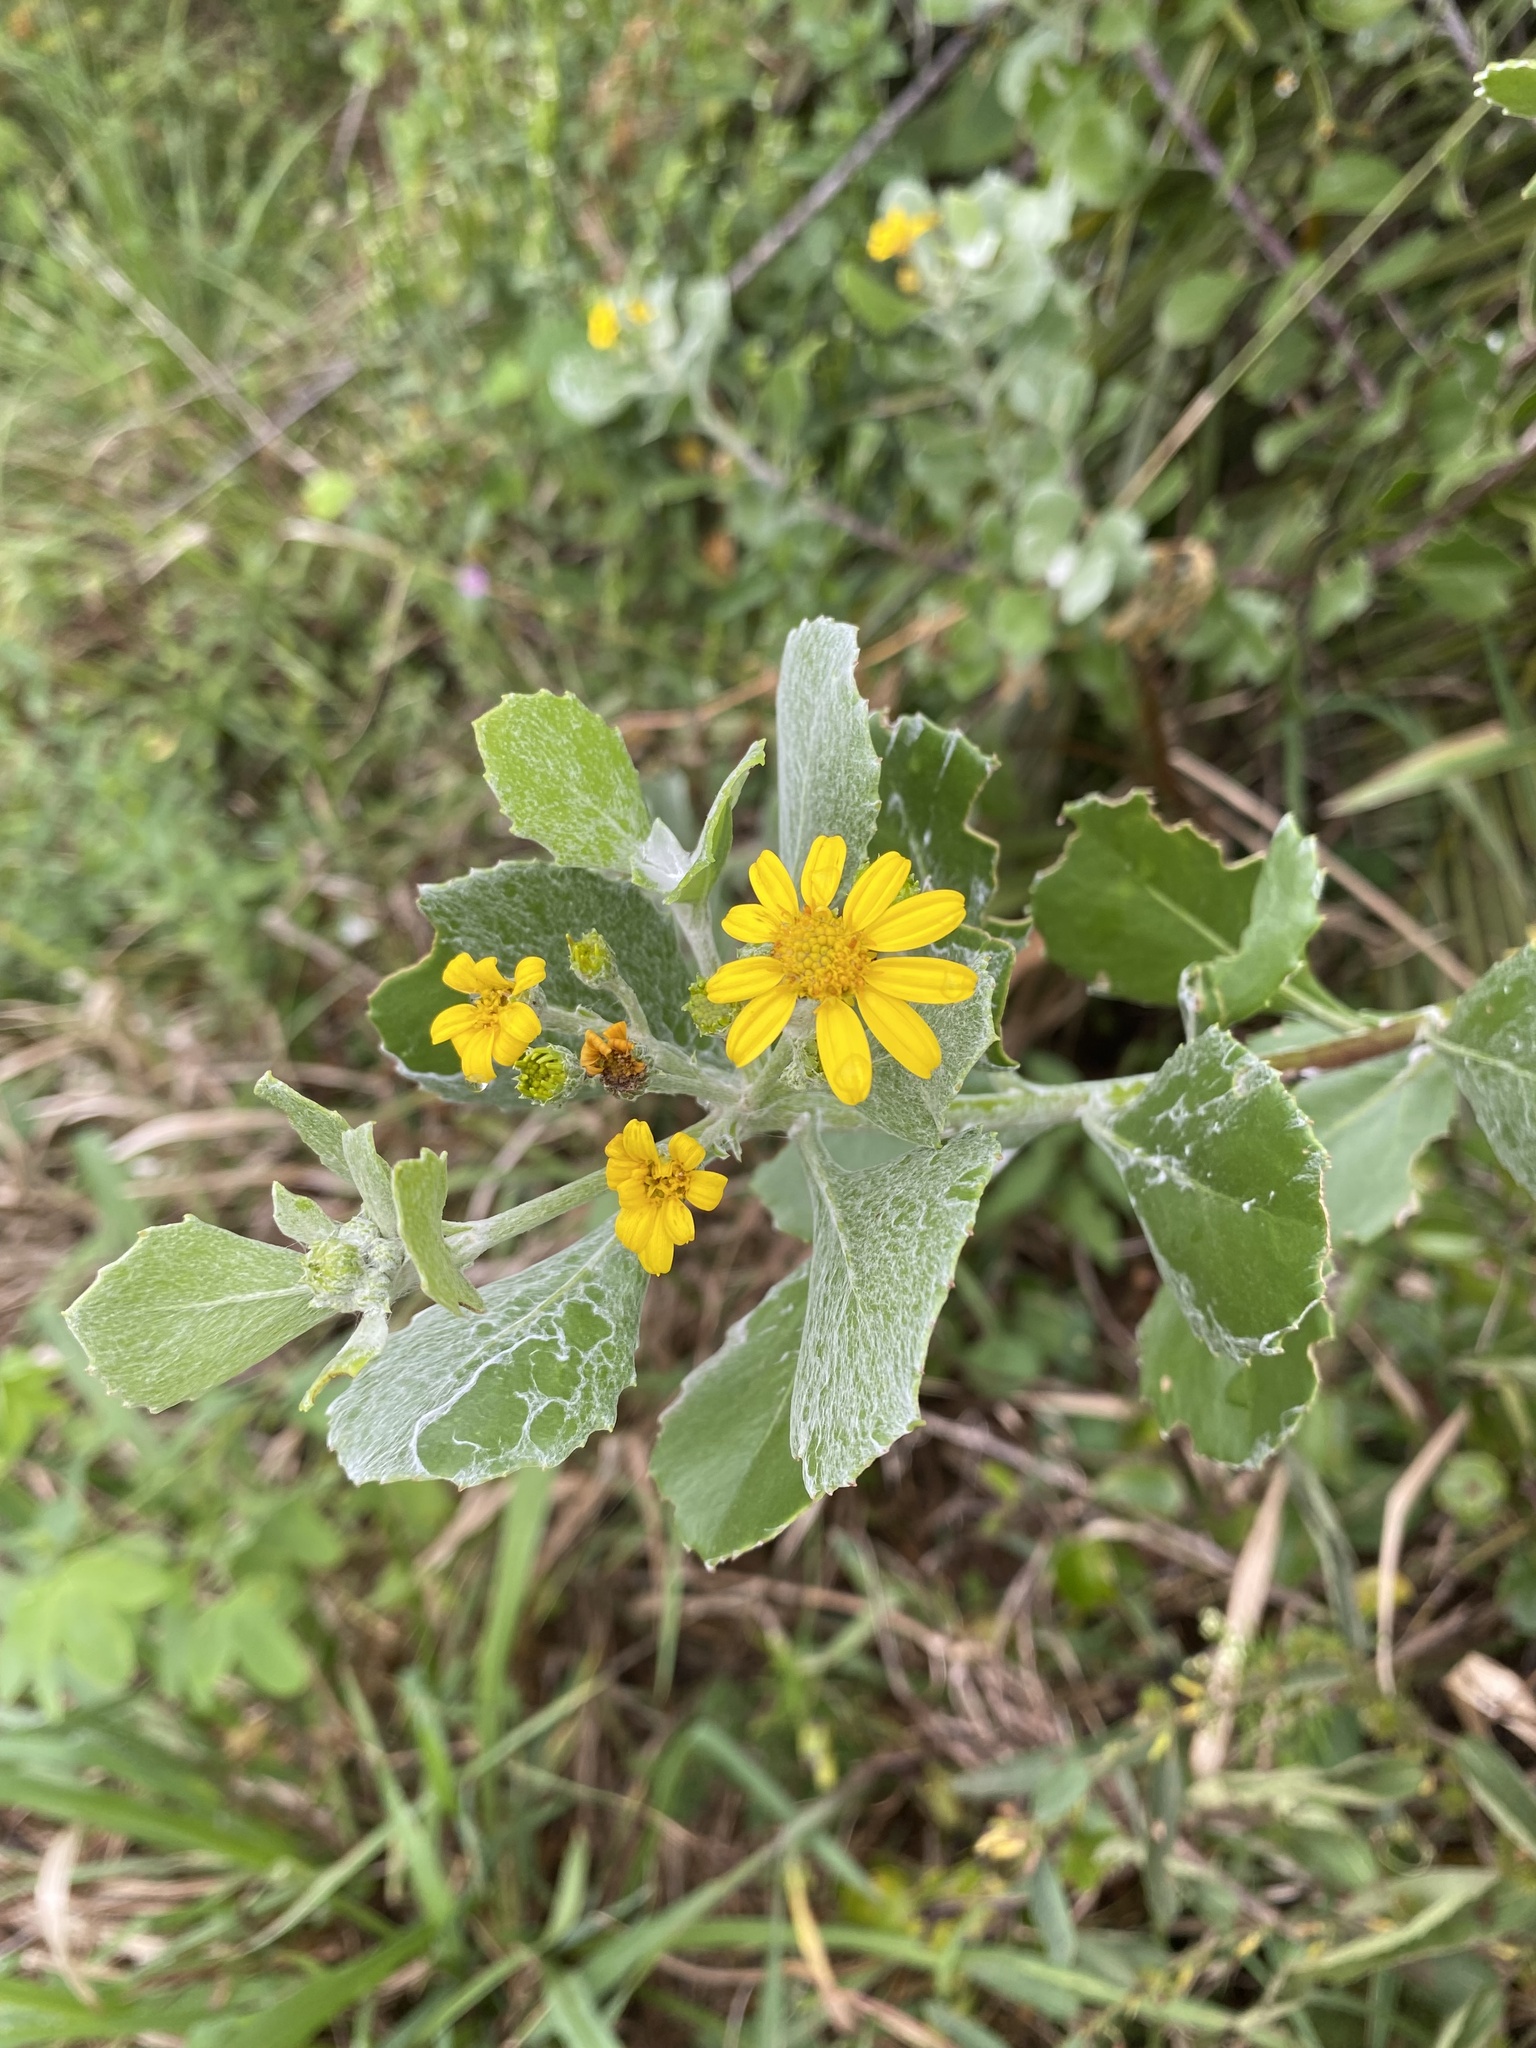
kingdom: Plantae
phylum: Tracheophyta
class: Magnoliopsida
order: Asterales
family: Asteraceae
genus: Osteospermum
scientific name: Osteospermum moniliferum
